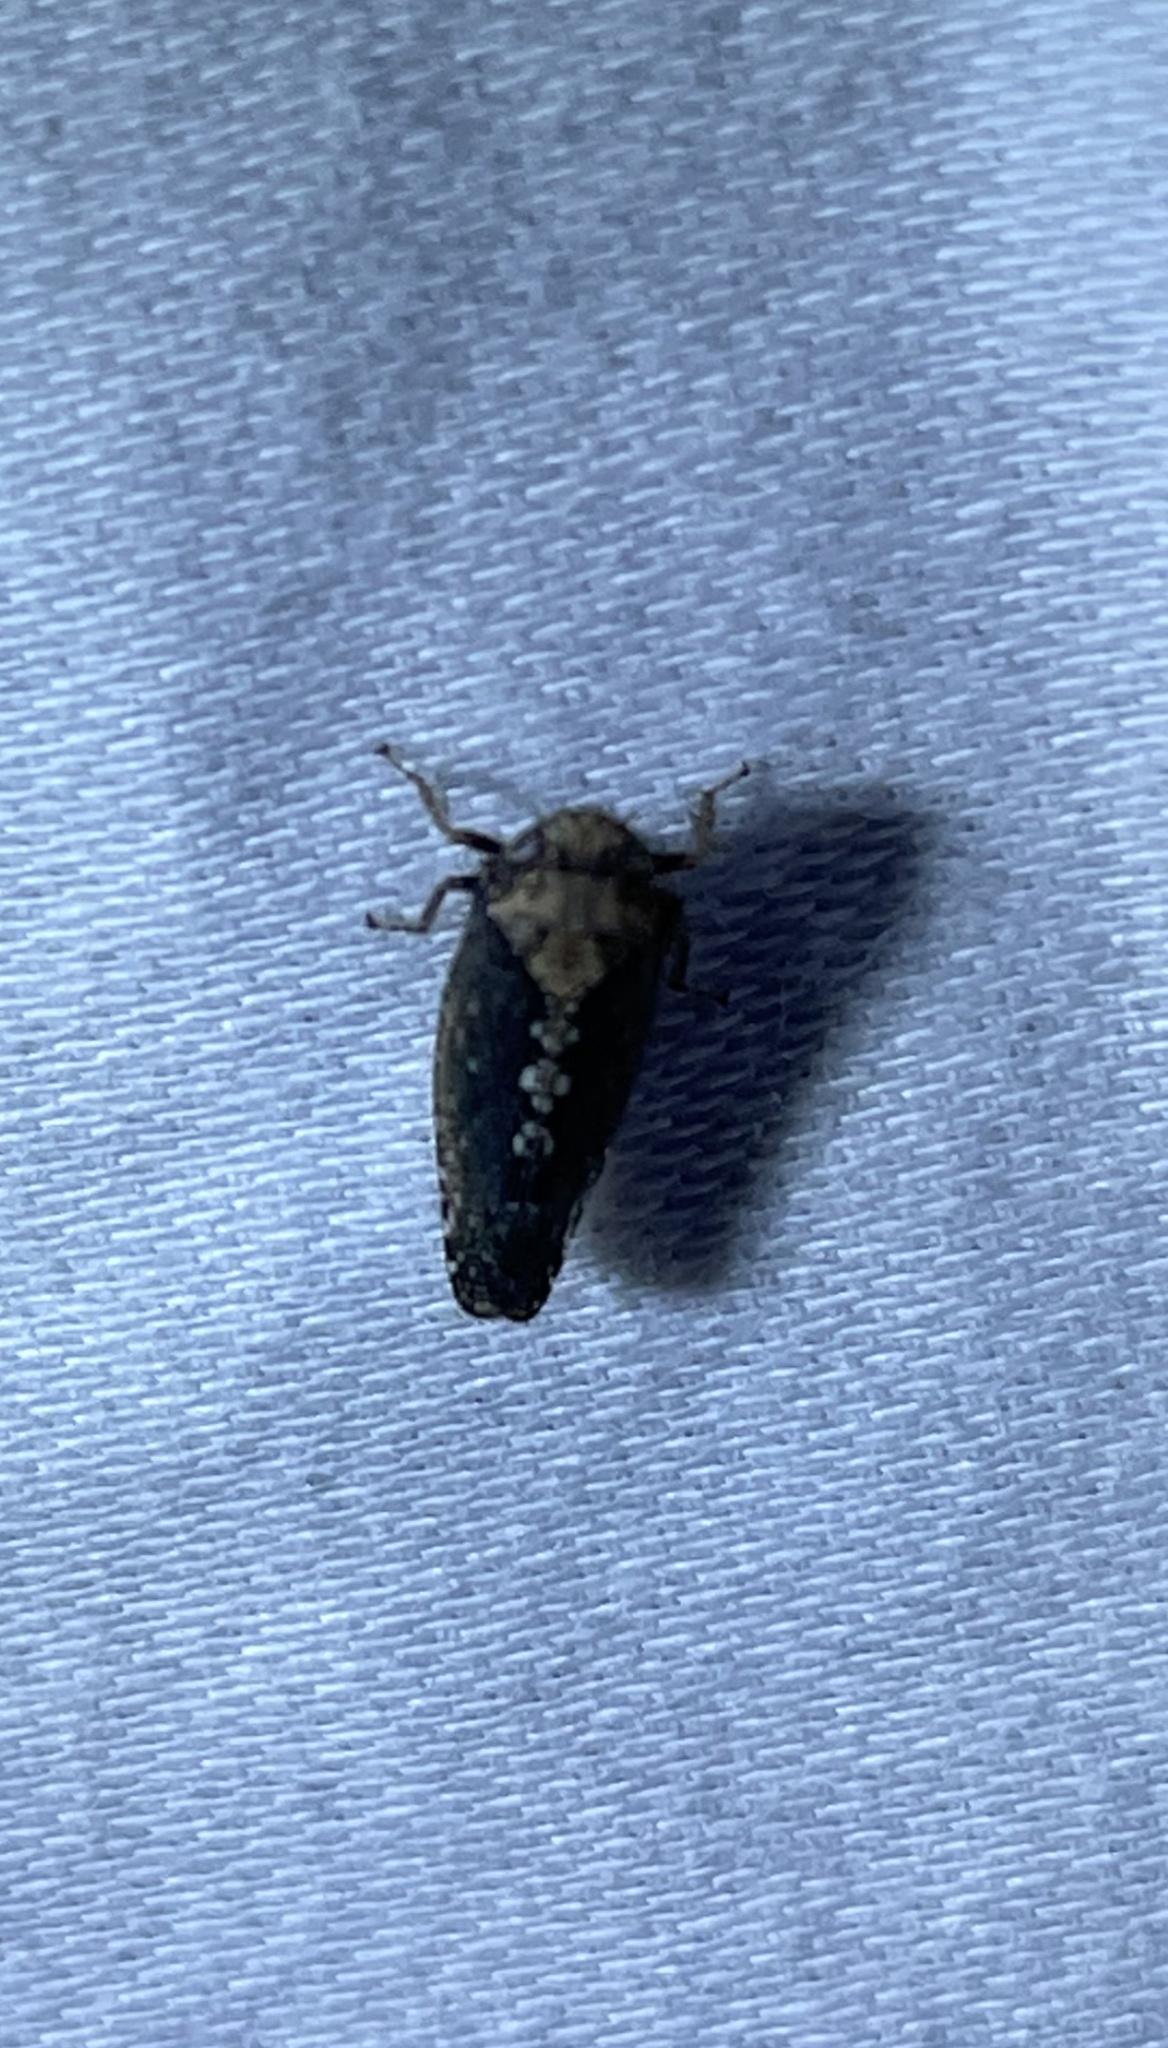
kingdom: Animalia
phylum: Arthropoda
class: Insecta
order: Hemiptera
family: Cicadellidae
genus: Excultanus
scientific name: Excultanus excultus
